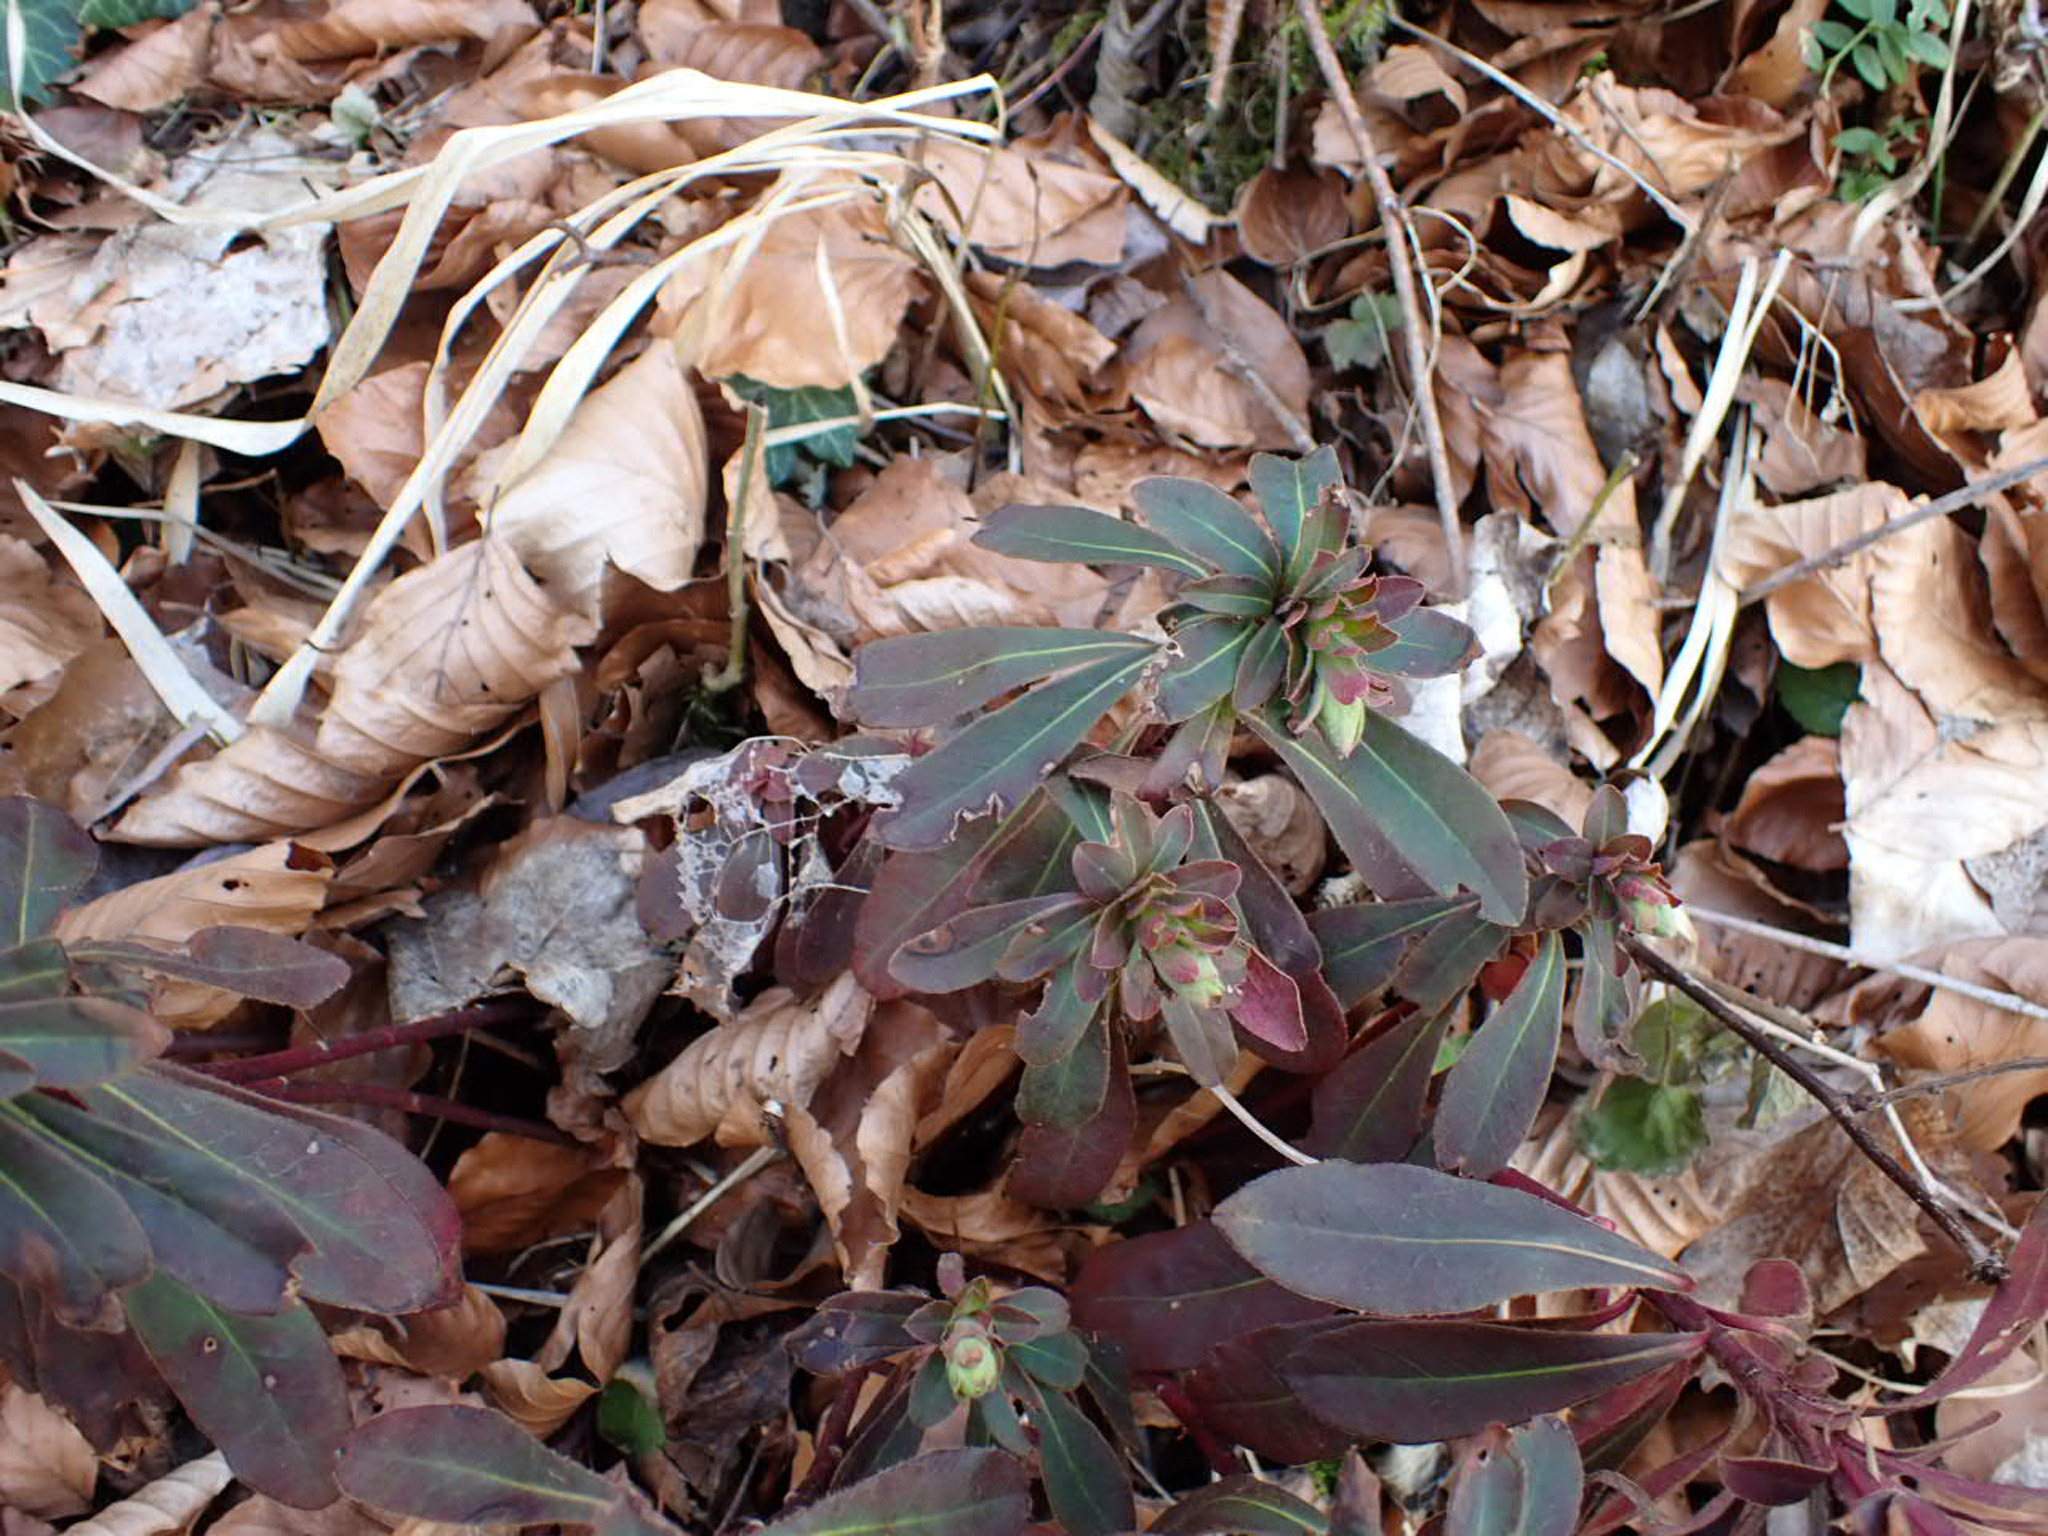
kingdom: Plantae
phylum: Tracheophyta
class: Magnoliopsida
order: Malpighiales
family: Euphorbiaceae
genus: Euphorbia
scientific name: Euphorbia amygdaloides
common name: Wood spurge
